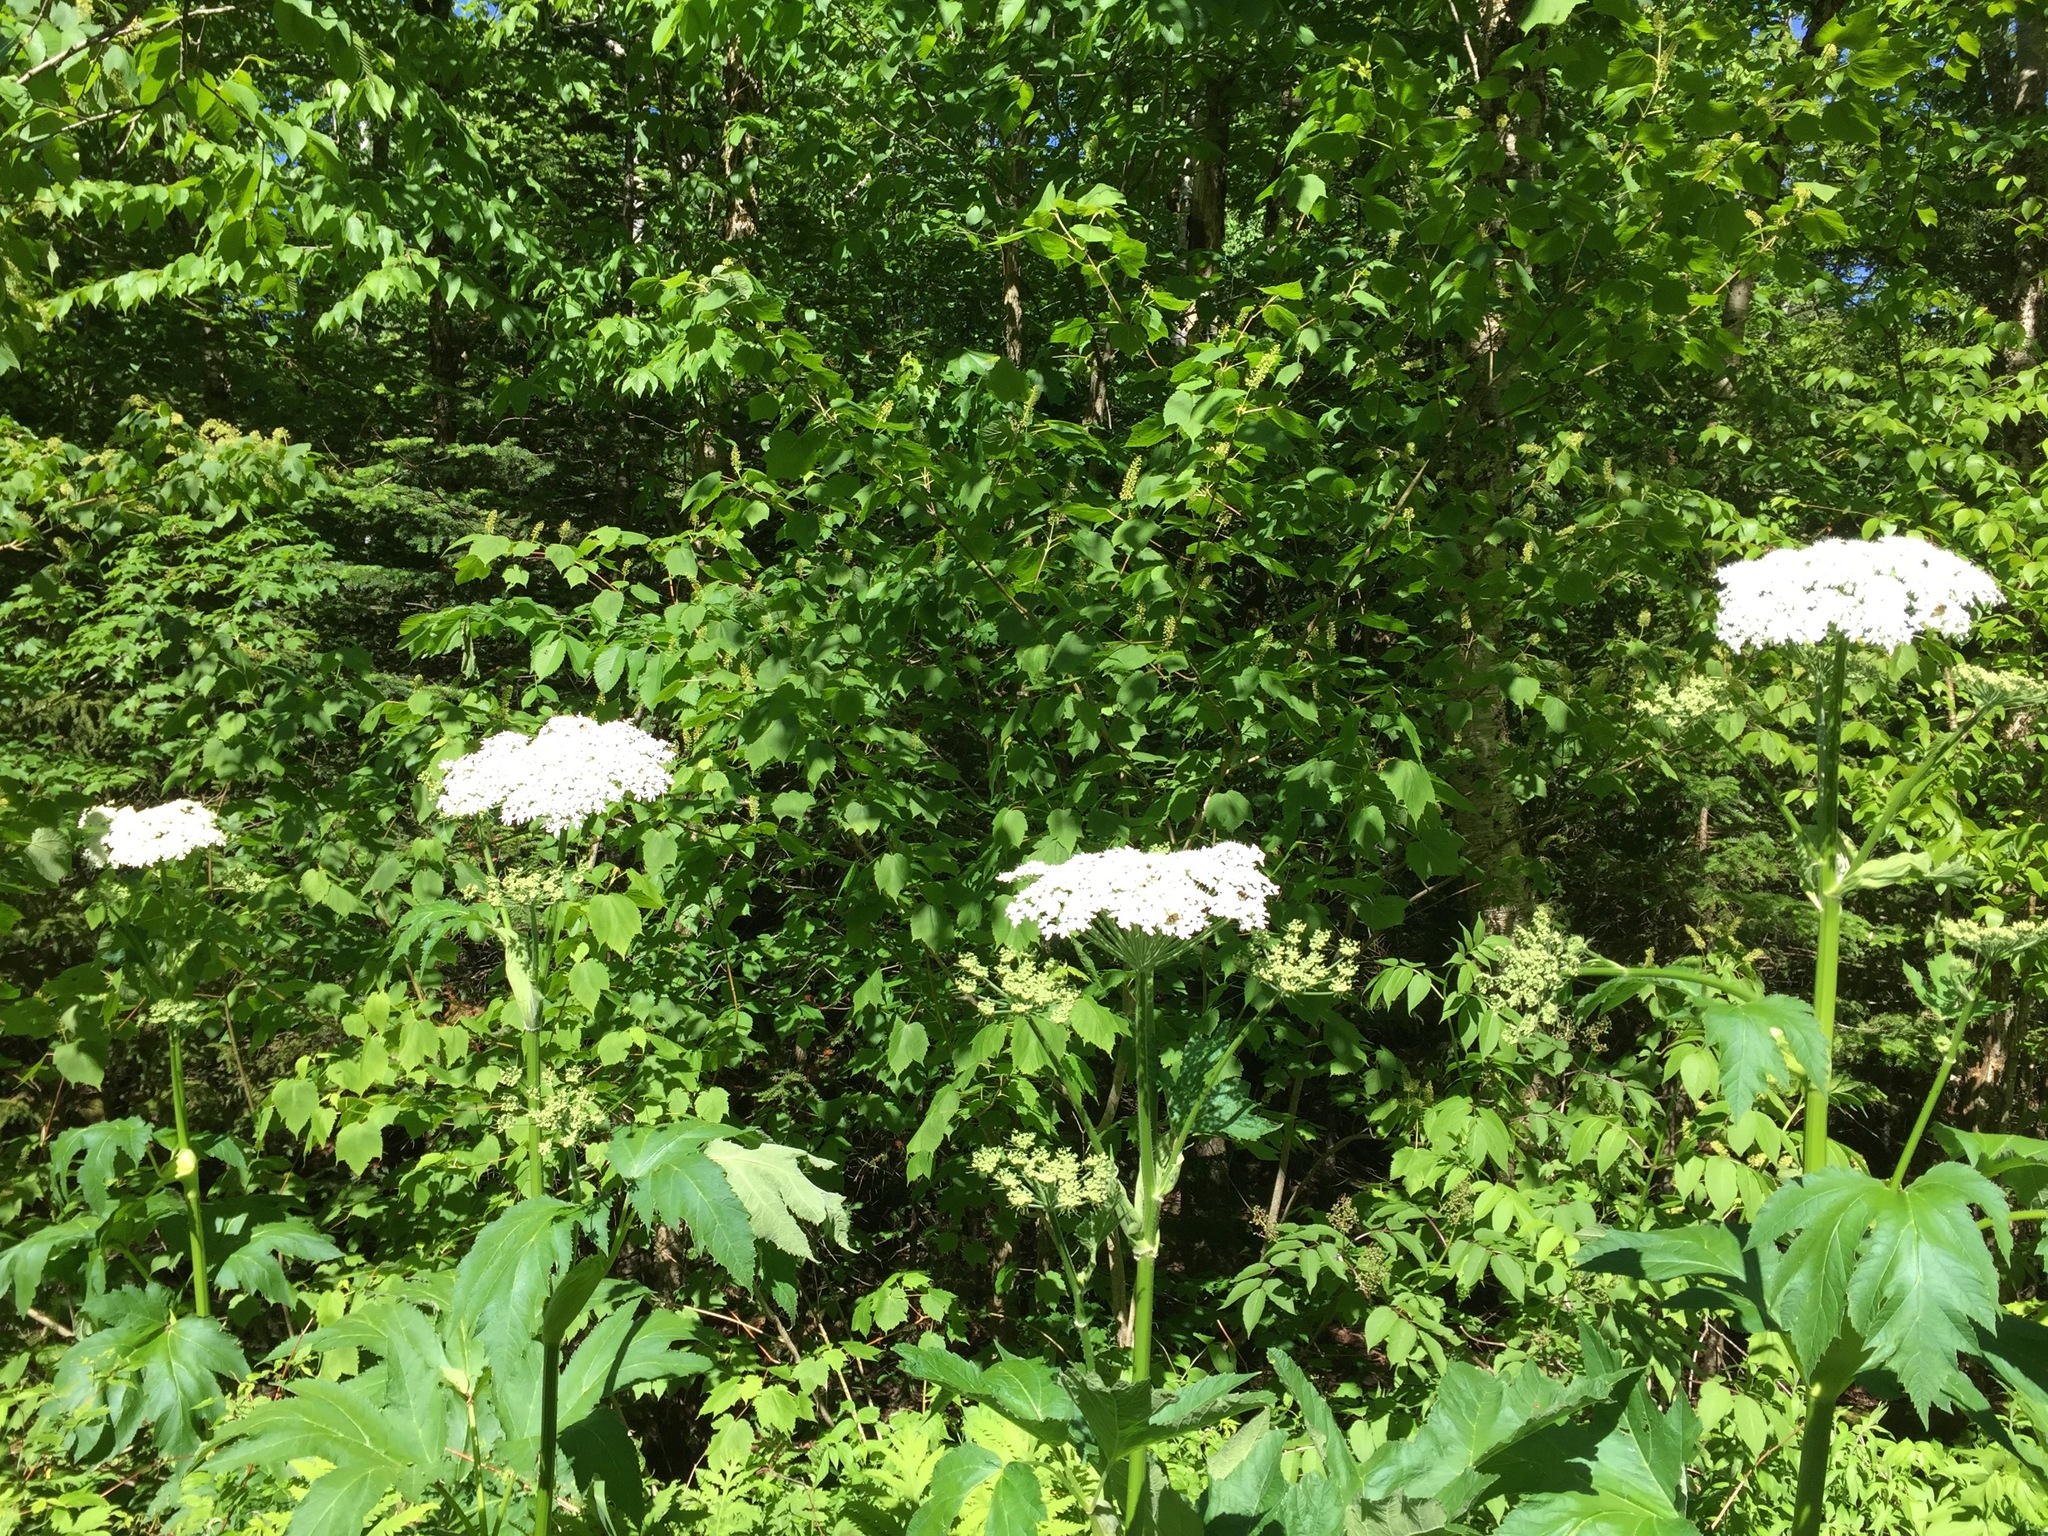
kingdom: Plantae
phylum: Tracheophyta
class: Magnoliopsida
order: Apiales
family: Apiaceae
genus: Heracleum
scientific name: Heracleum maximum
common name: American cow parsnip
